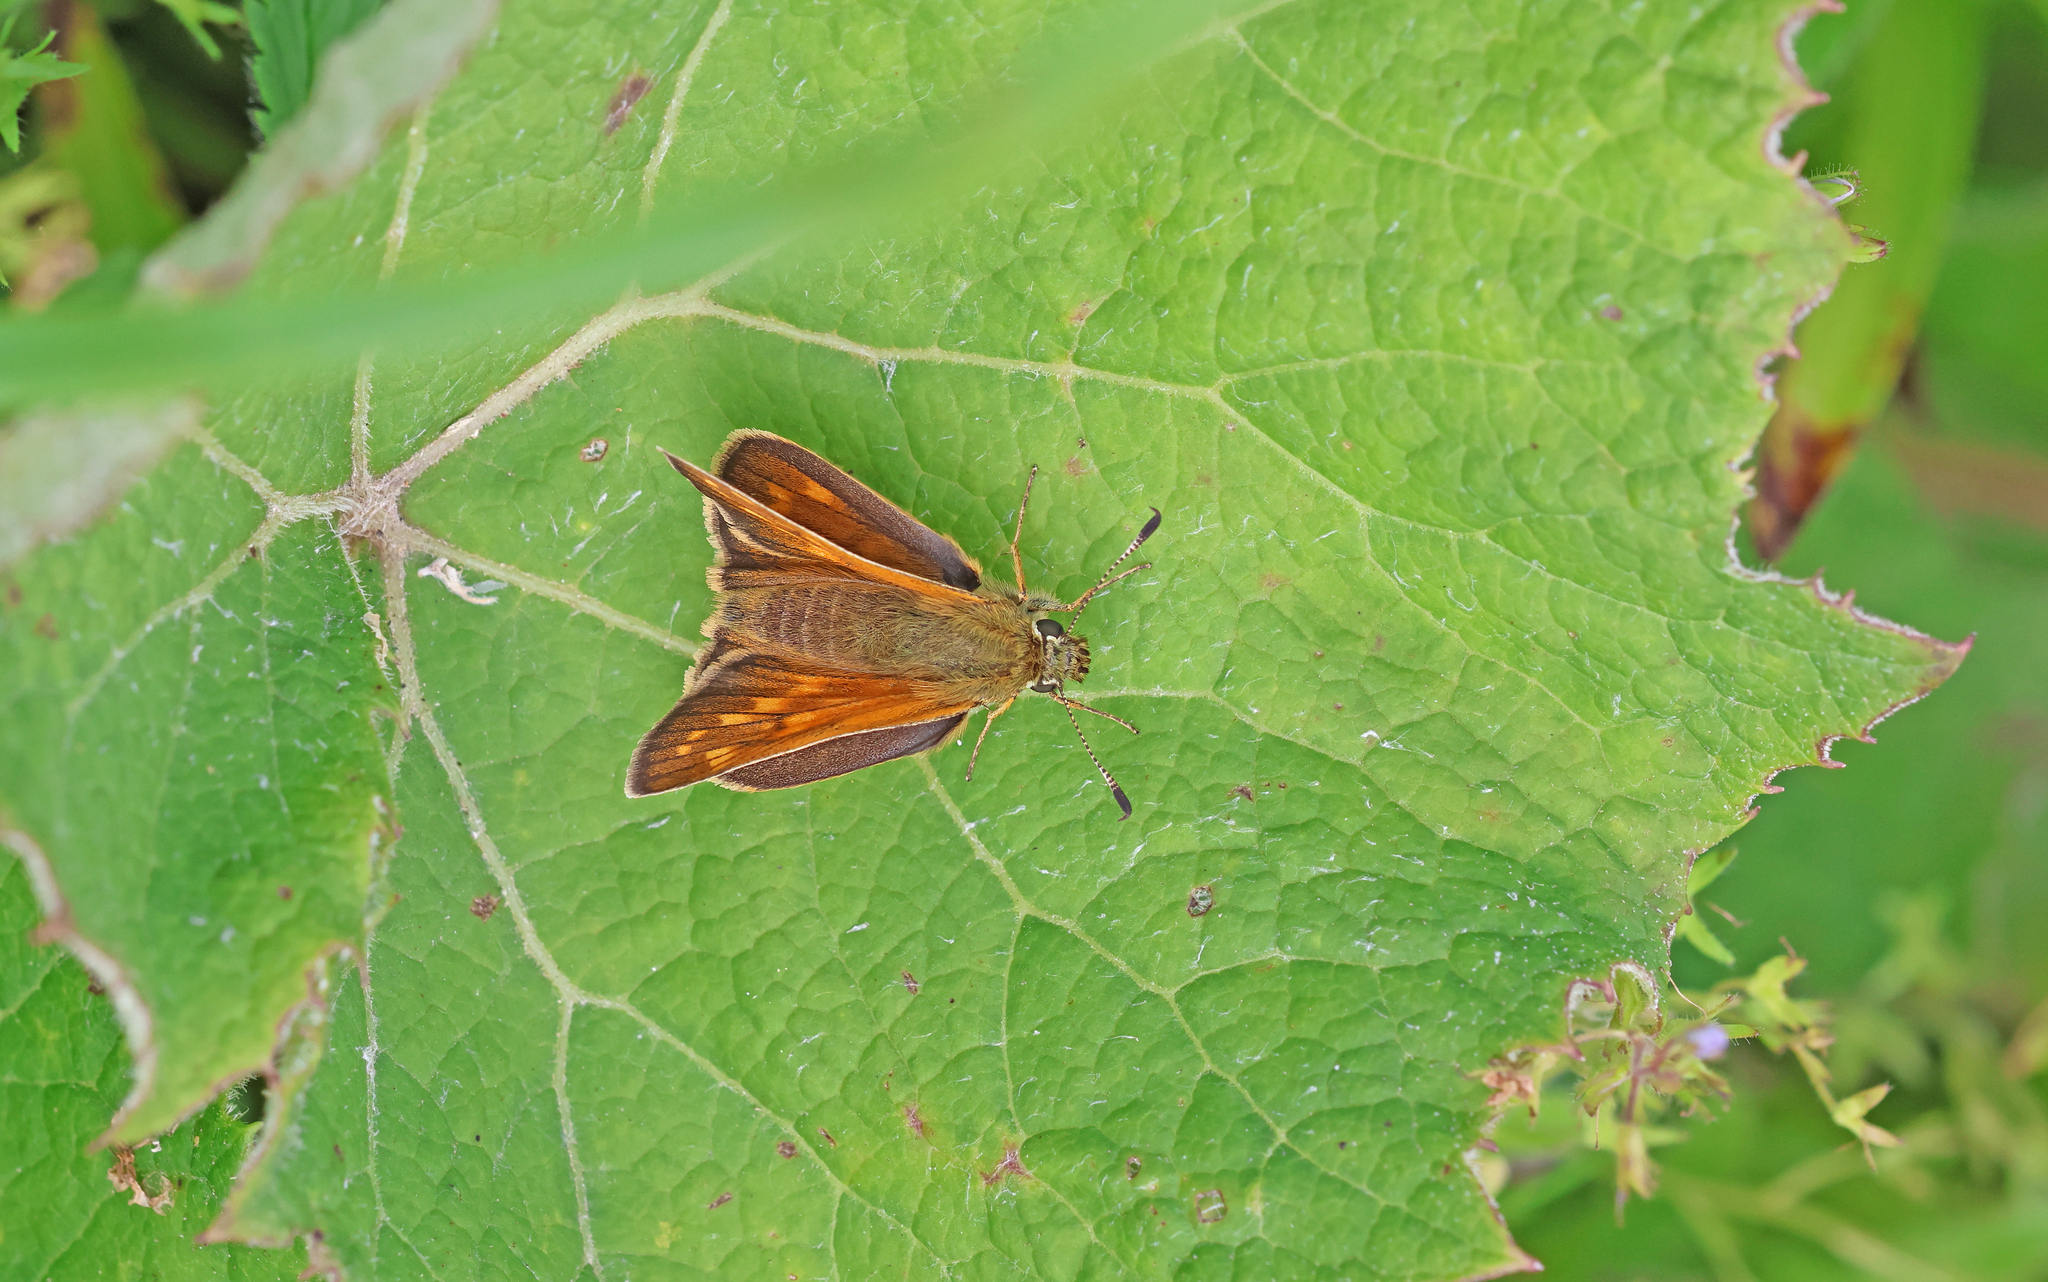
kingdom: Animalia
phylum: Arthropoda
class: Insecta
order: Lepidoptera
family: Hesperiidae
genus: Ochlodes
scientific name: Ochlodes venata
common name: Large skipper
